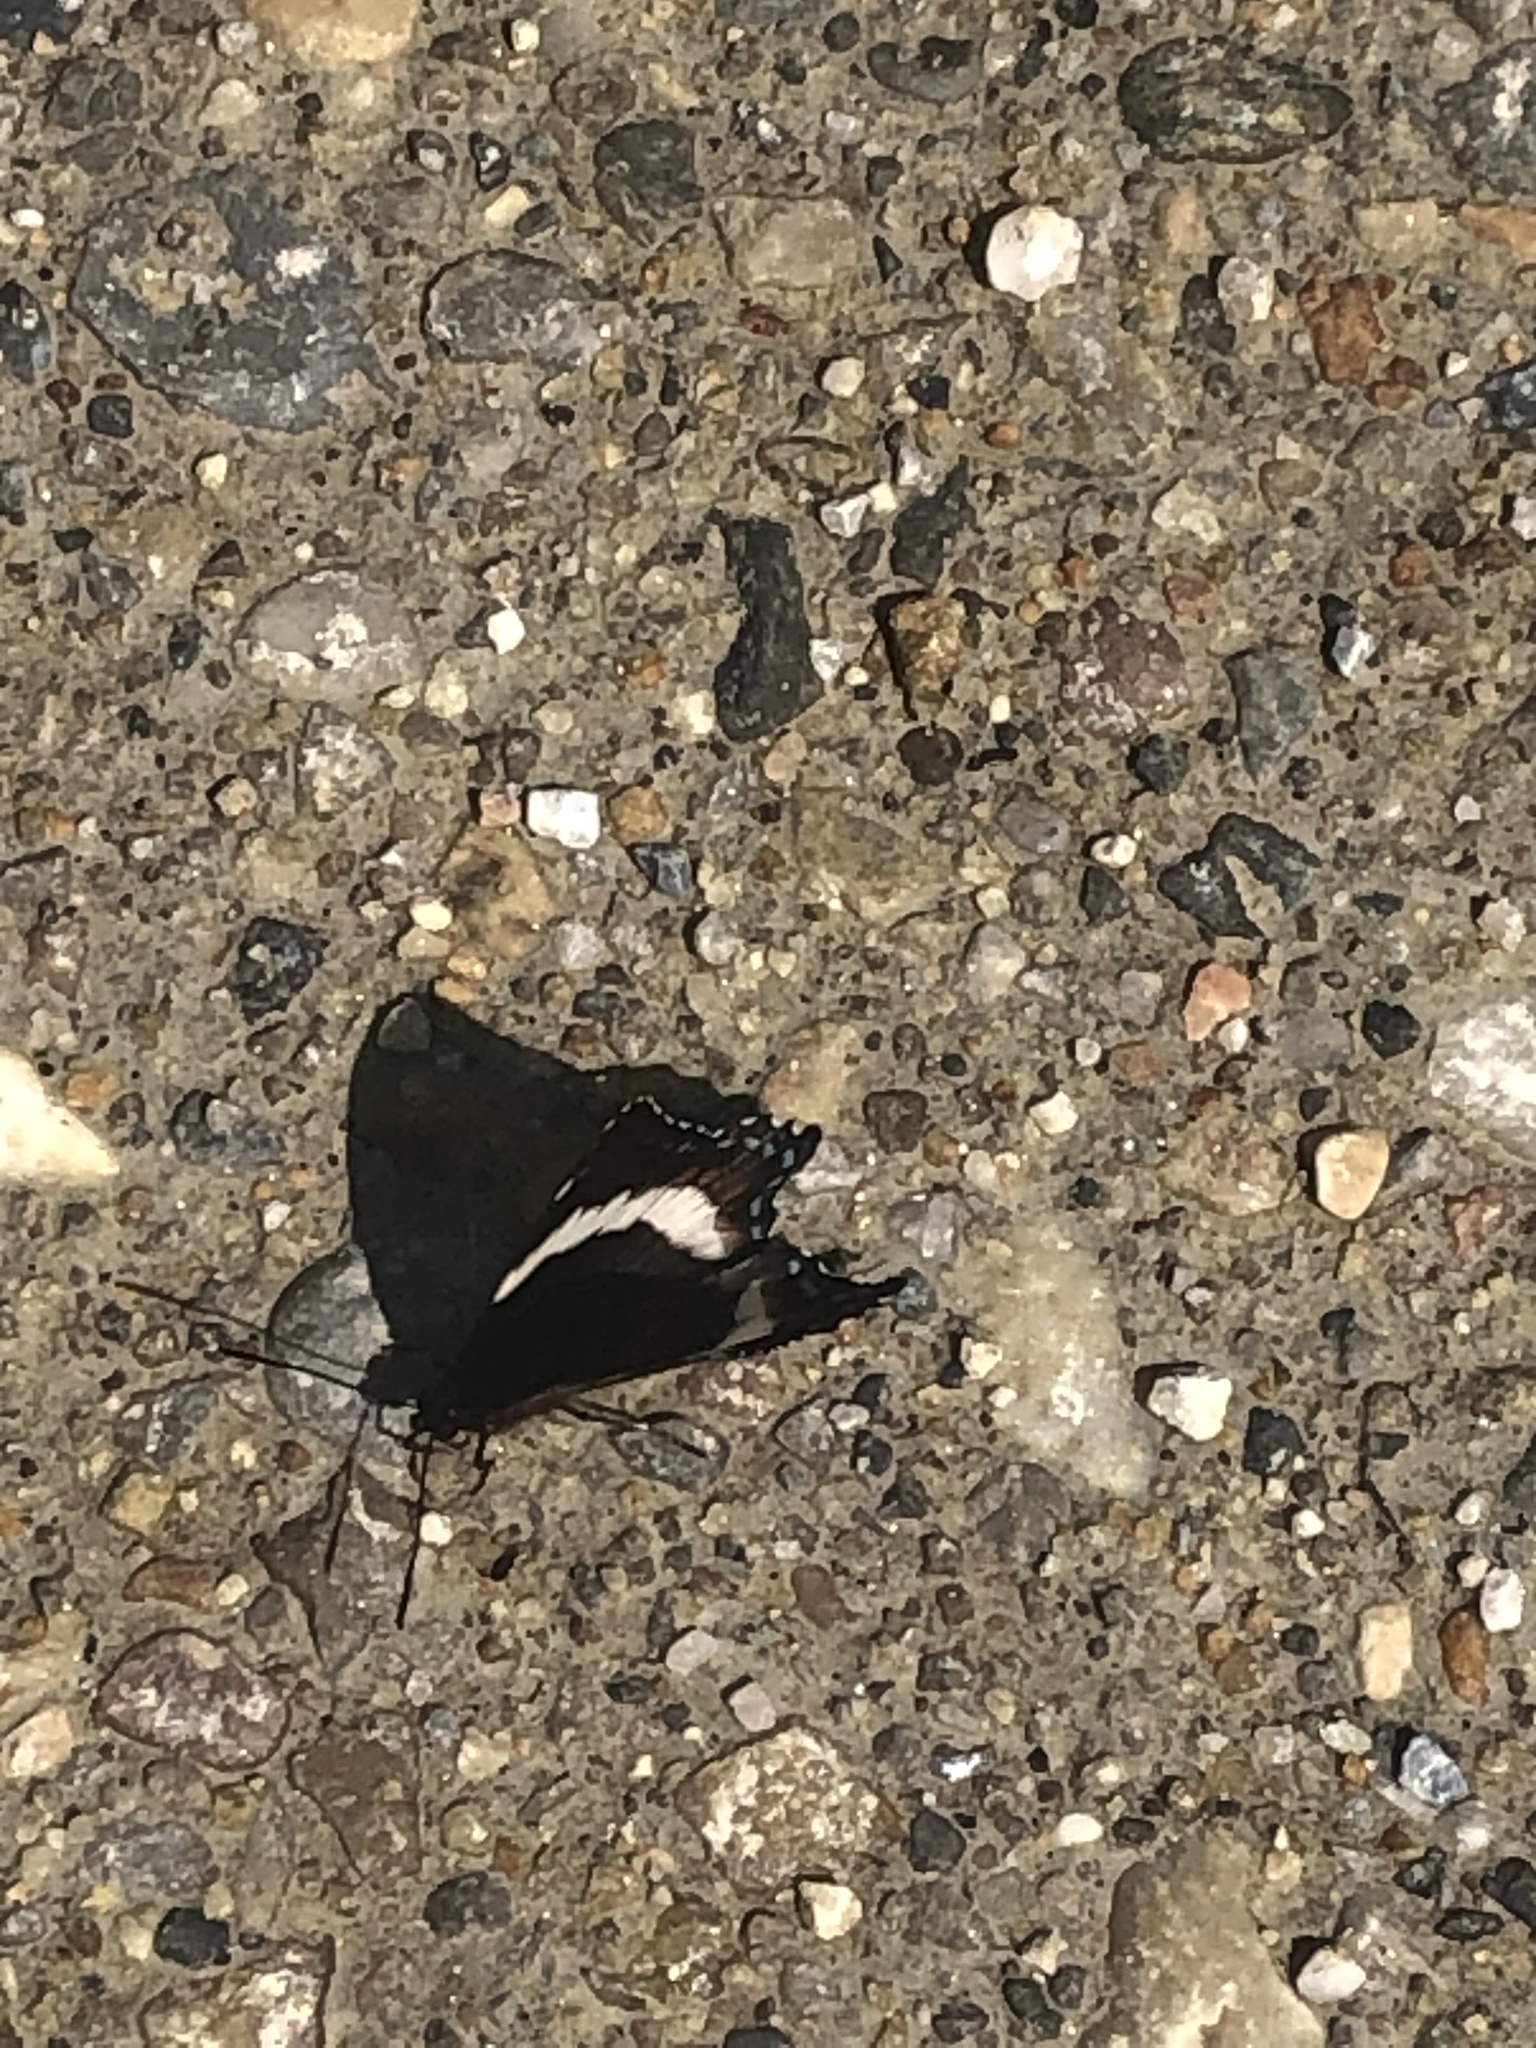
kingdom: Animalia
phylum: Arthropoda
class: Insecta
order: Lepidoptera
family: Nymphalidae
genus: Limenitis
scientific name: Limenitis arthemis
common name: Red-spotted admiral
